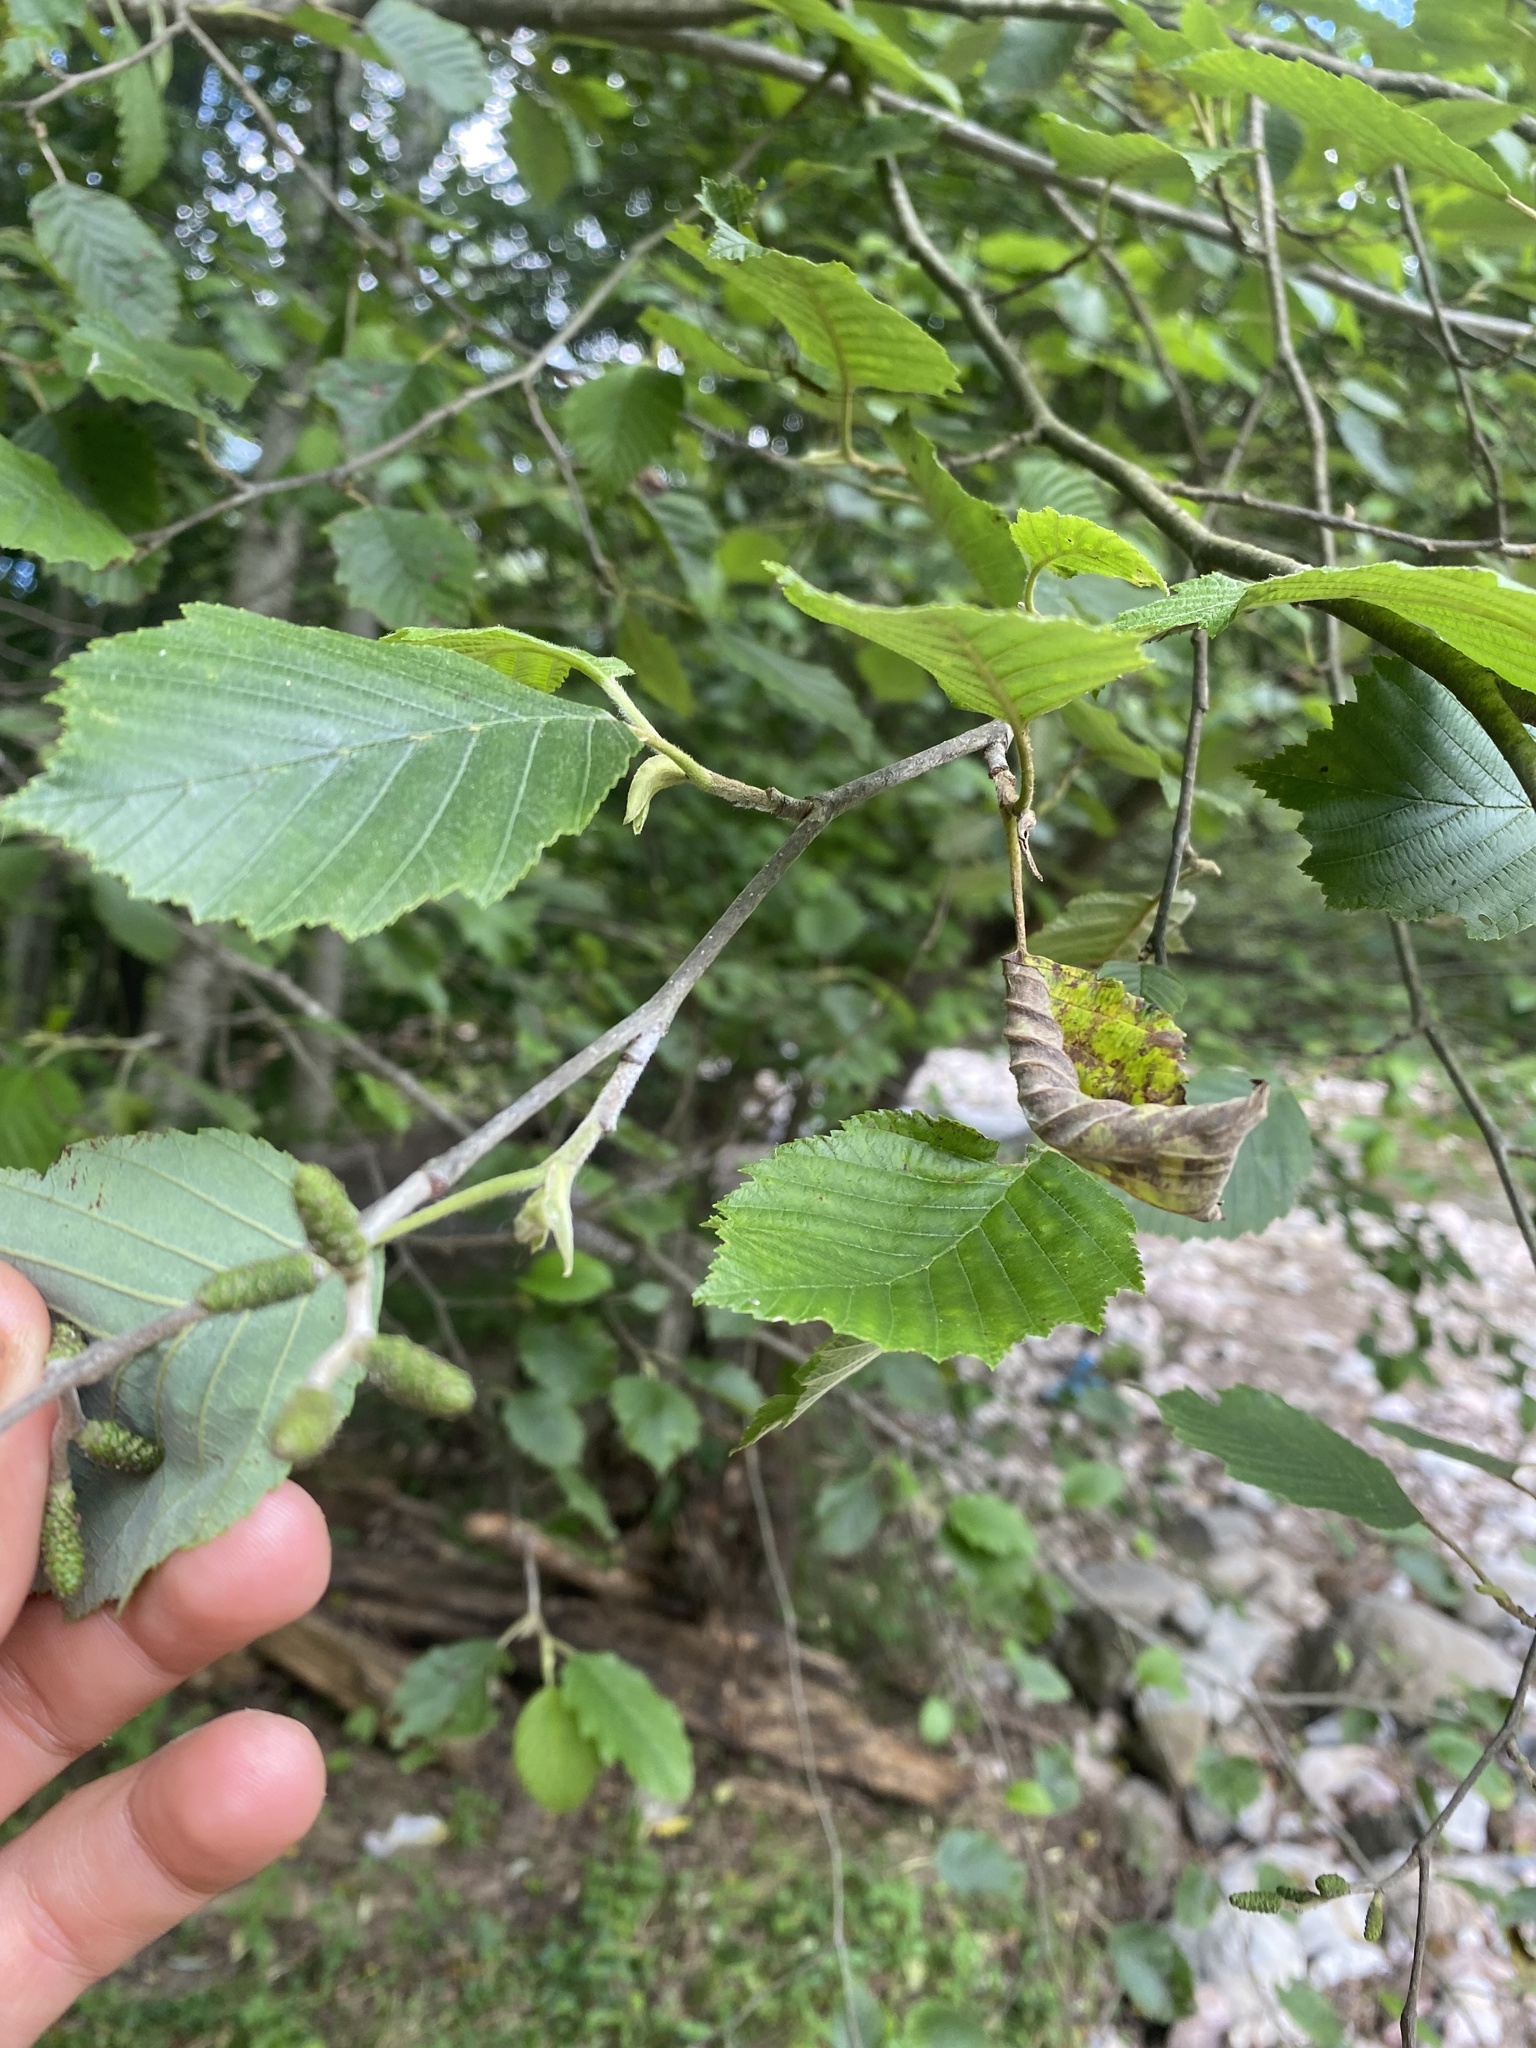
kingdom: Plantae
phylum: Tracheophyta
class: Magnoliopsida
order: Fagales
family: Betulaceae
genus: Alnus
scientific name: Alnus incana
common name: Grey alder
